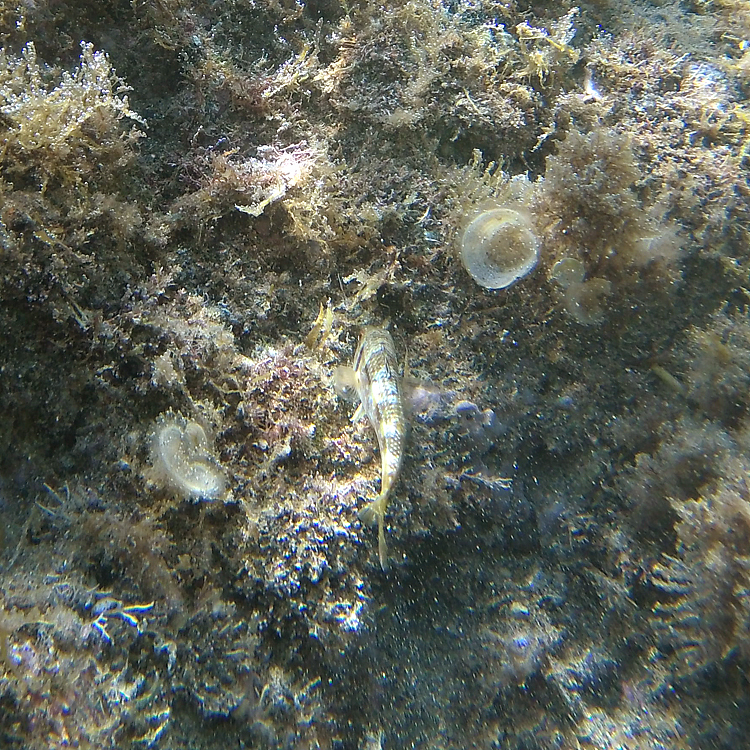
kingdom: Animalia
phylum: Chordata
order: Perciformes
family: Mullidae
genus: Mullus
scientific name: Mullus surmuletus
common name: Red mullet
